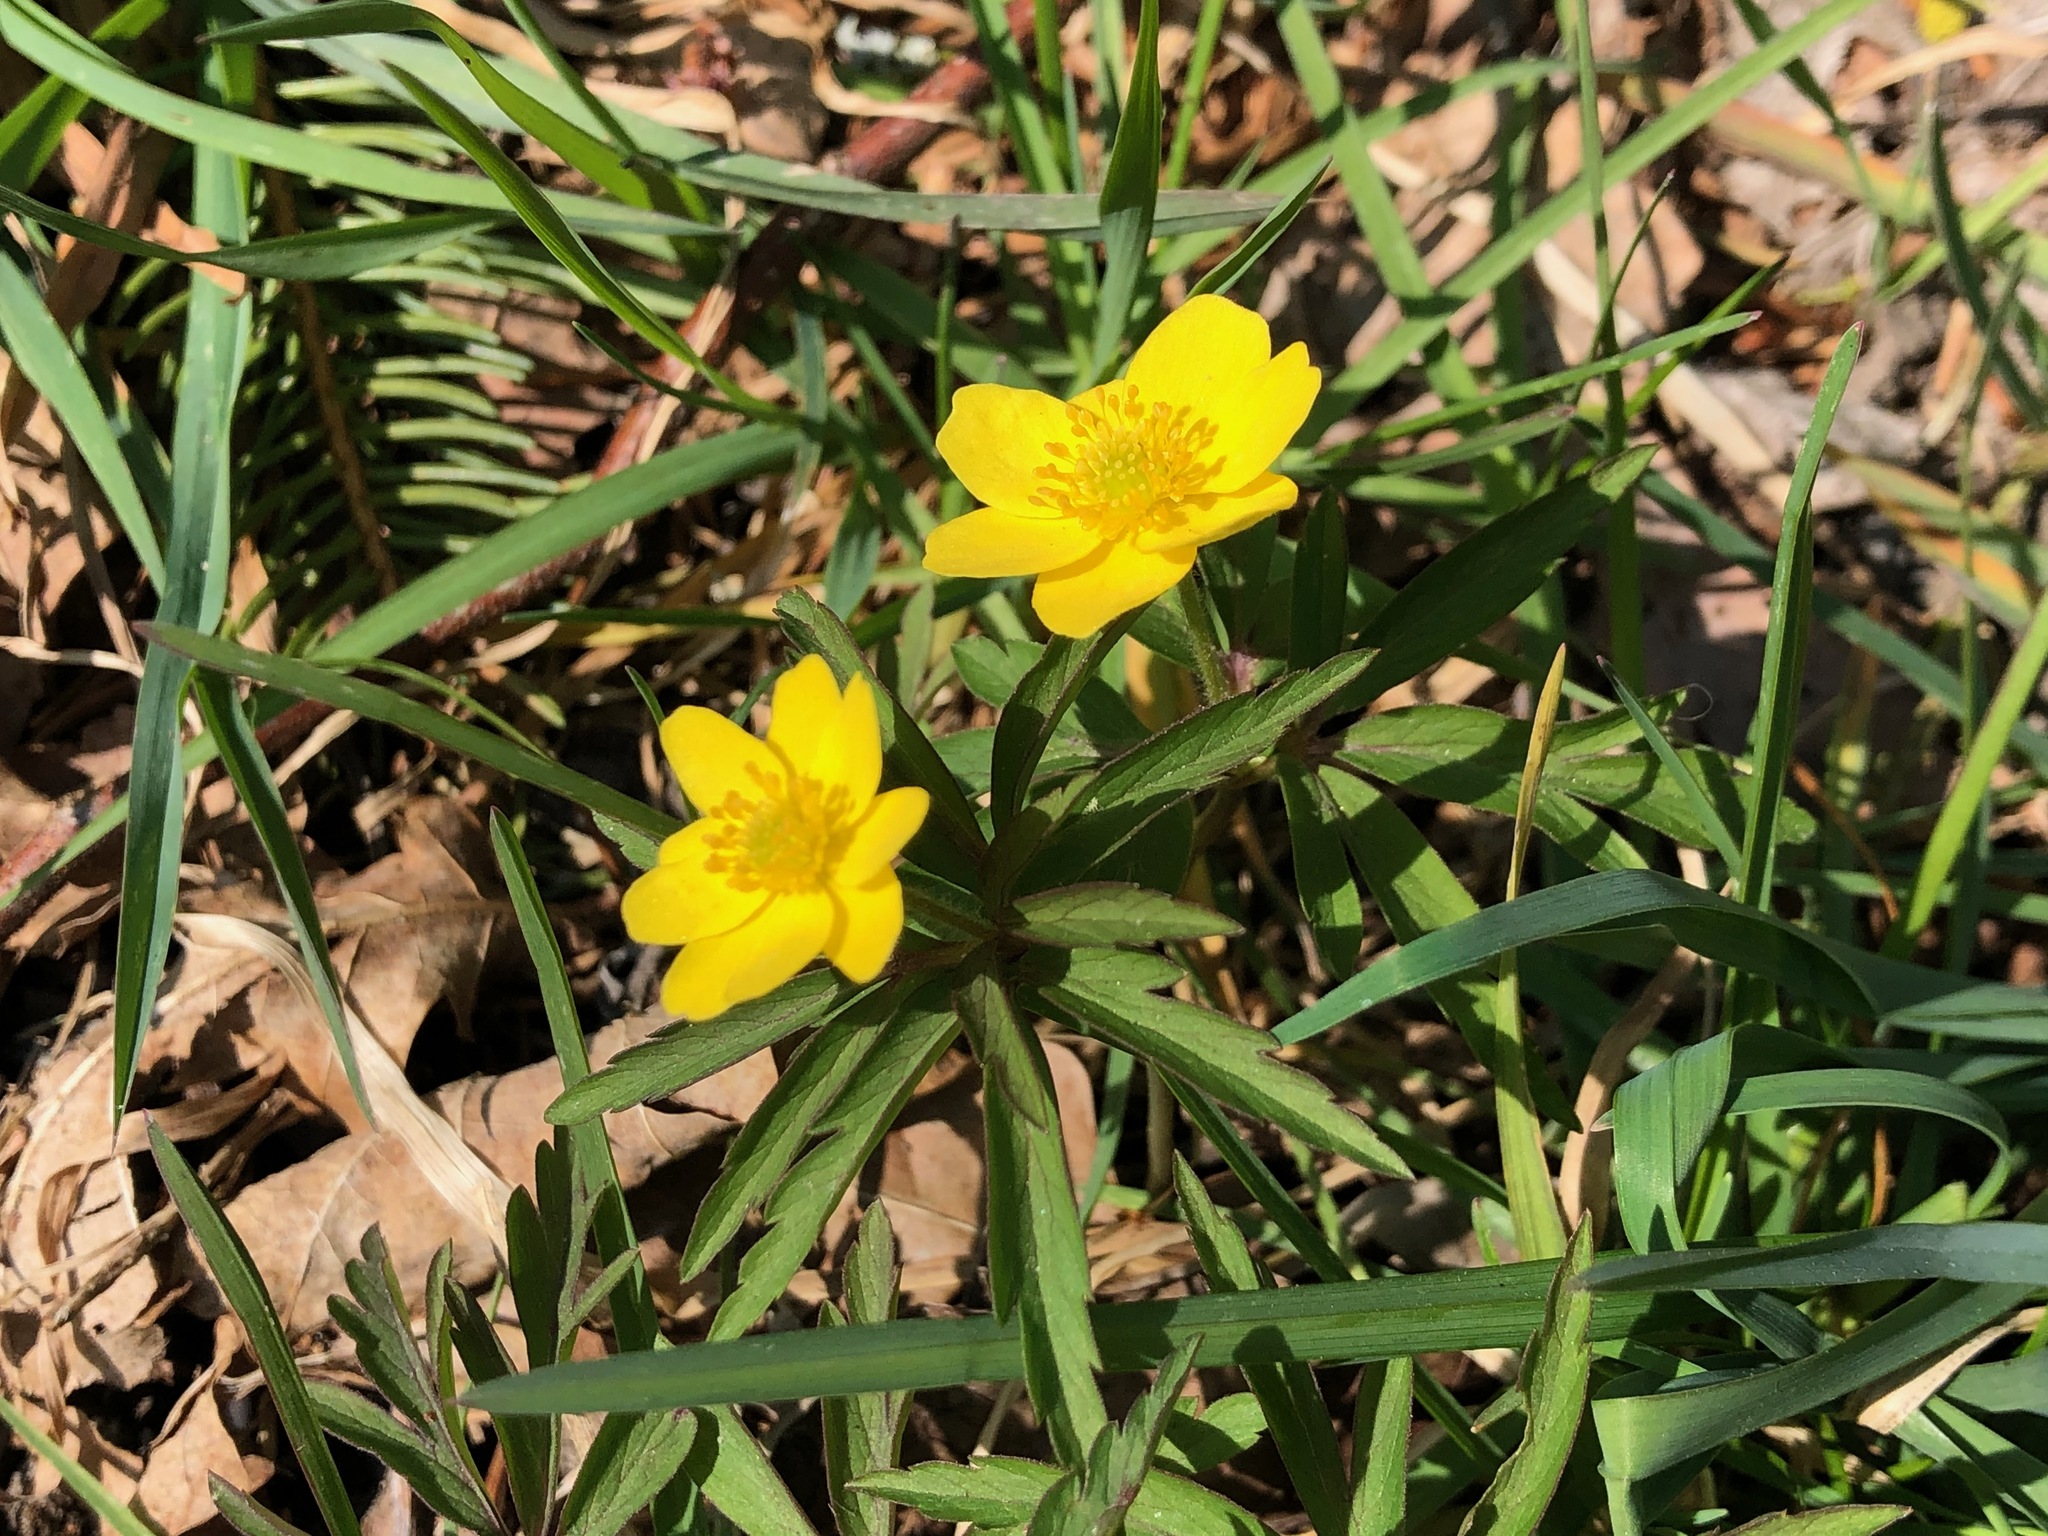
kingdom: Plantae
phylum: Tracheophyta
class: Magnoliopsida
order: Ranunculales
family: Ranunculaceae
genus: Anemone
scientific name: Anemone ranunculoides
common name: Yellow anemone
